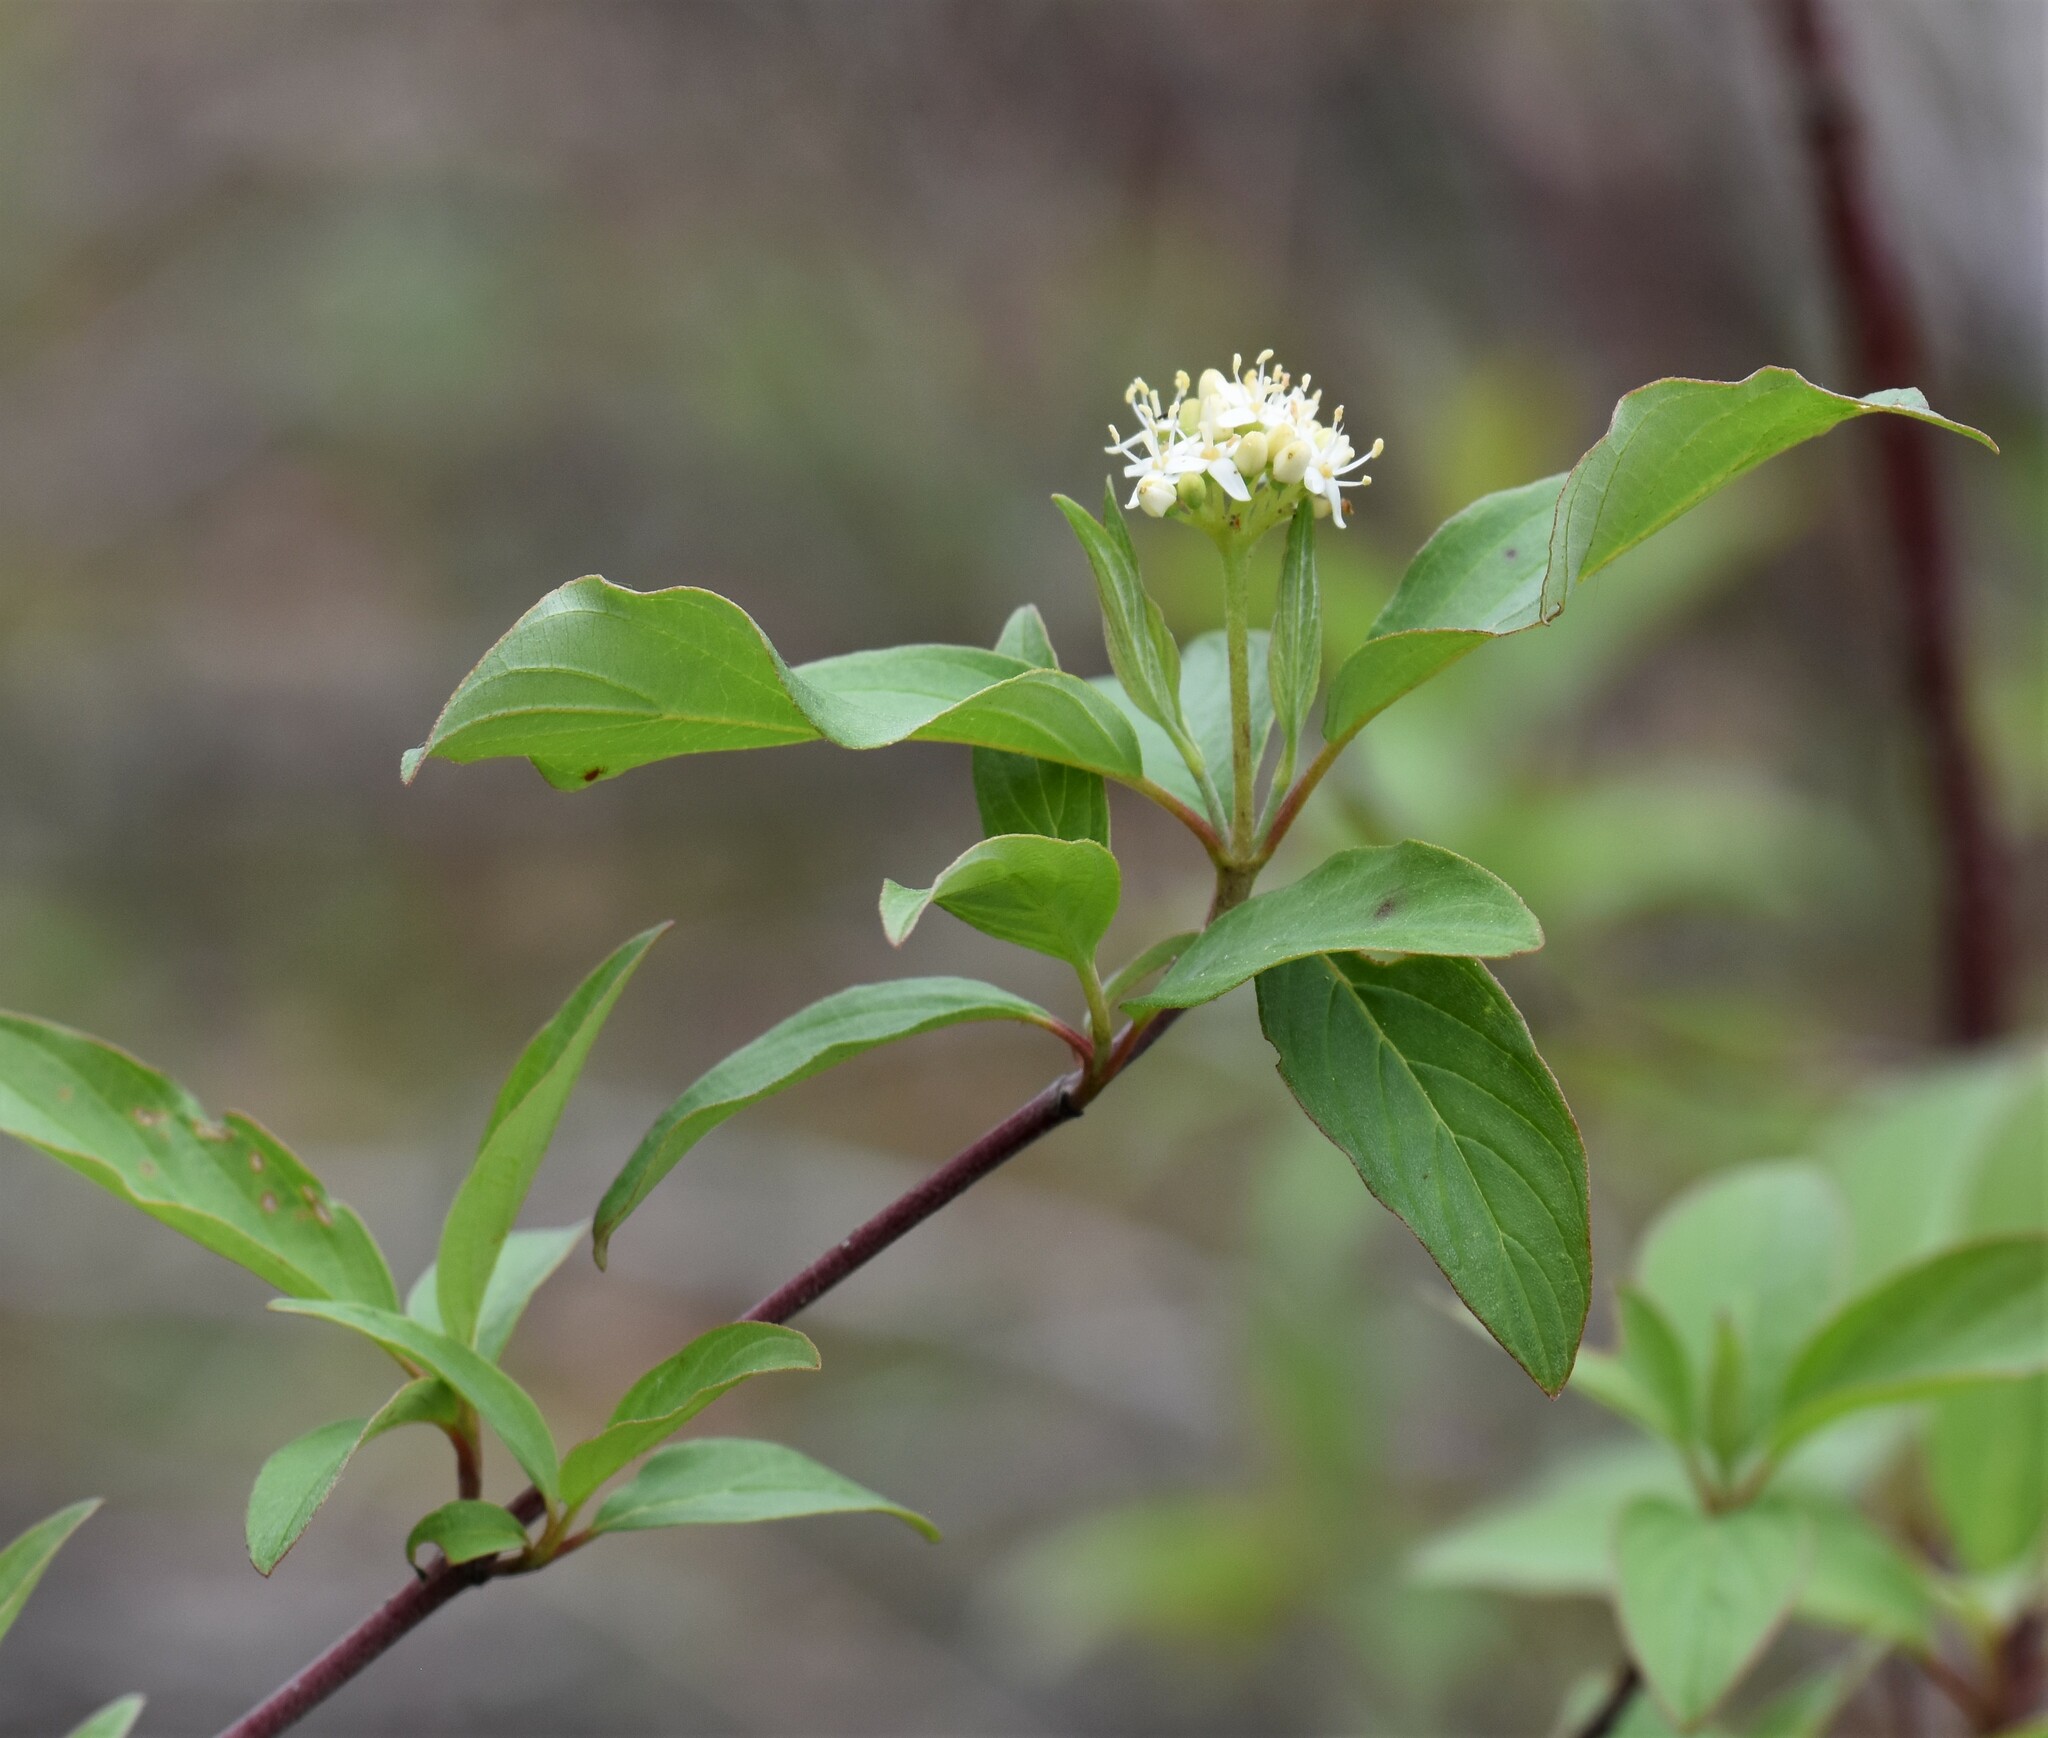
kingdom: Plantae
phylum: Tracheophyta
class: Magnoliopsida
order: Cornales
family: Cornaceae
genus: Cornus
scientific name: Cornus sericea
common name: Red-osier dogwood
